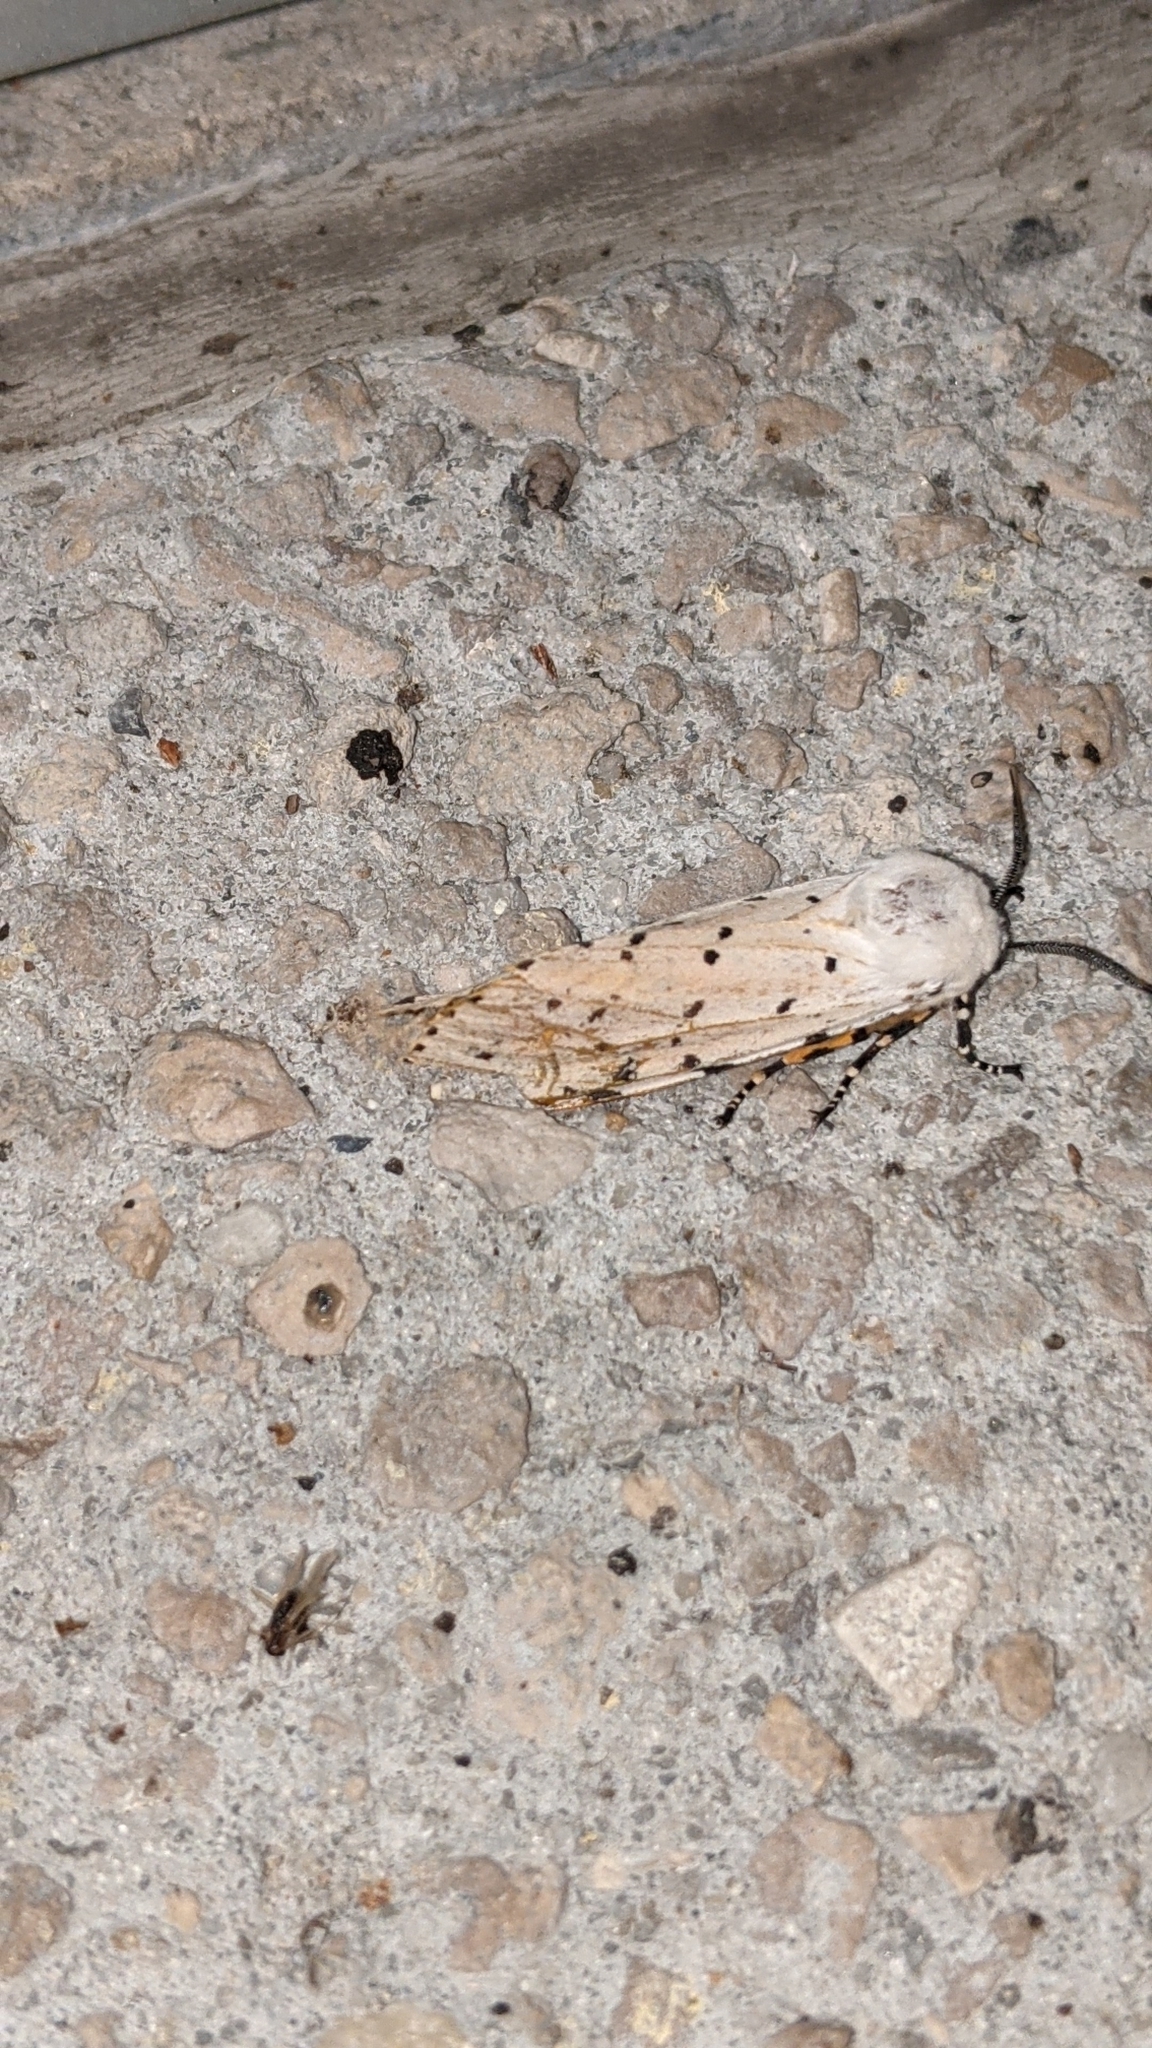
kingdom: Animalia
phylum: Arthropoda
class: Insecta
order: Lepidoptera
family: Erebidae
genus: Estigmene
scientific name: Estigmene acrea
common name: Salt marsh moth
